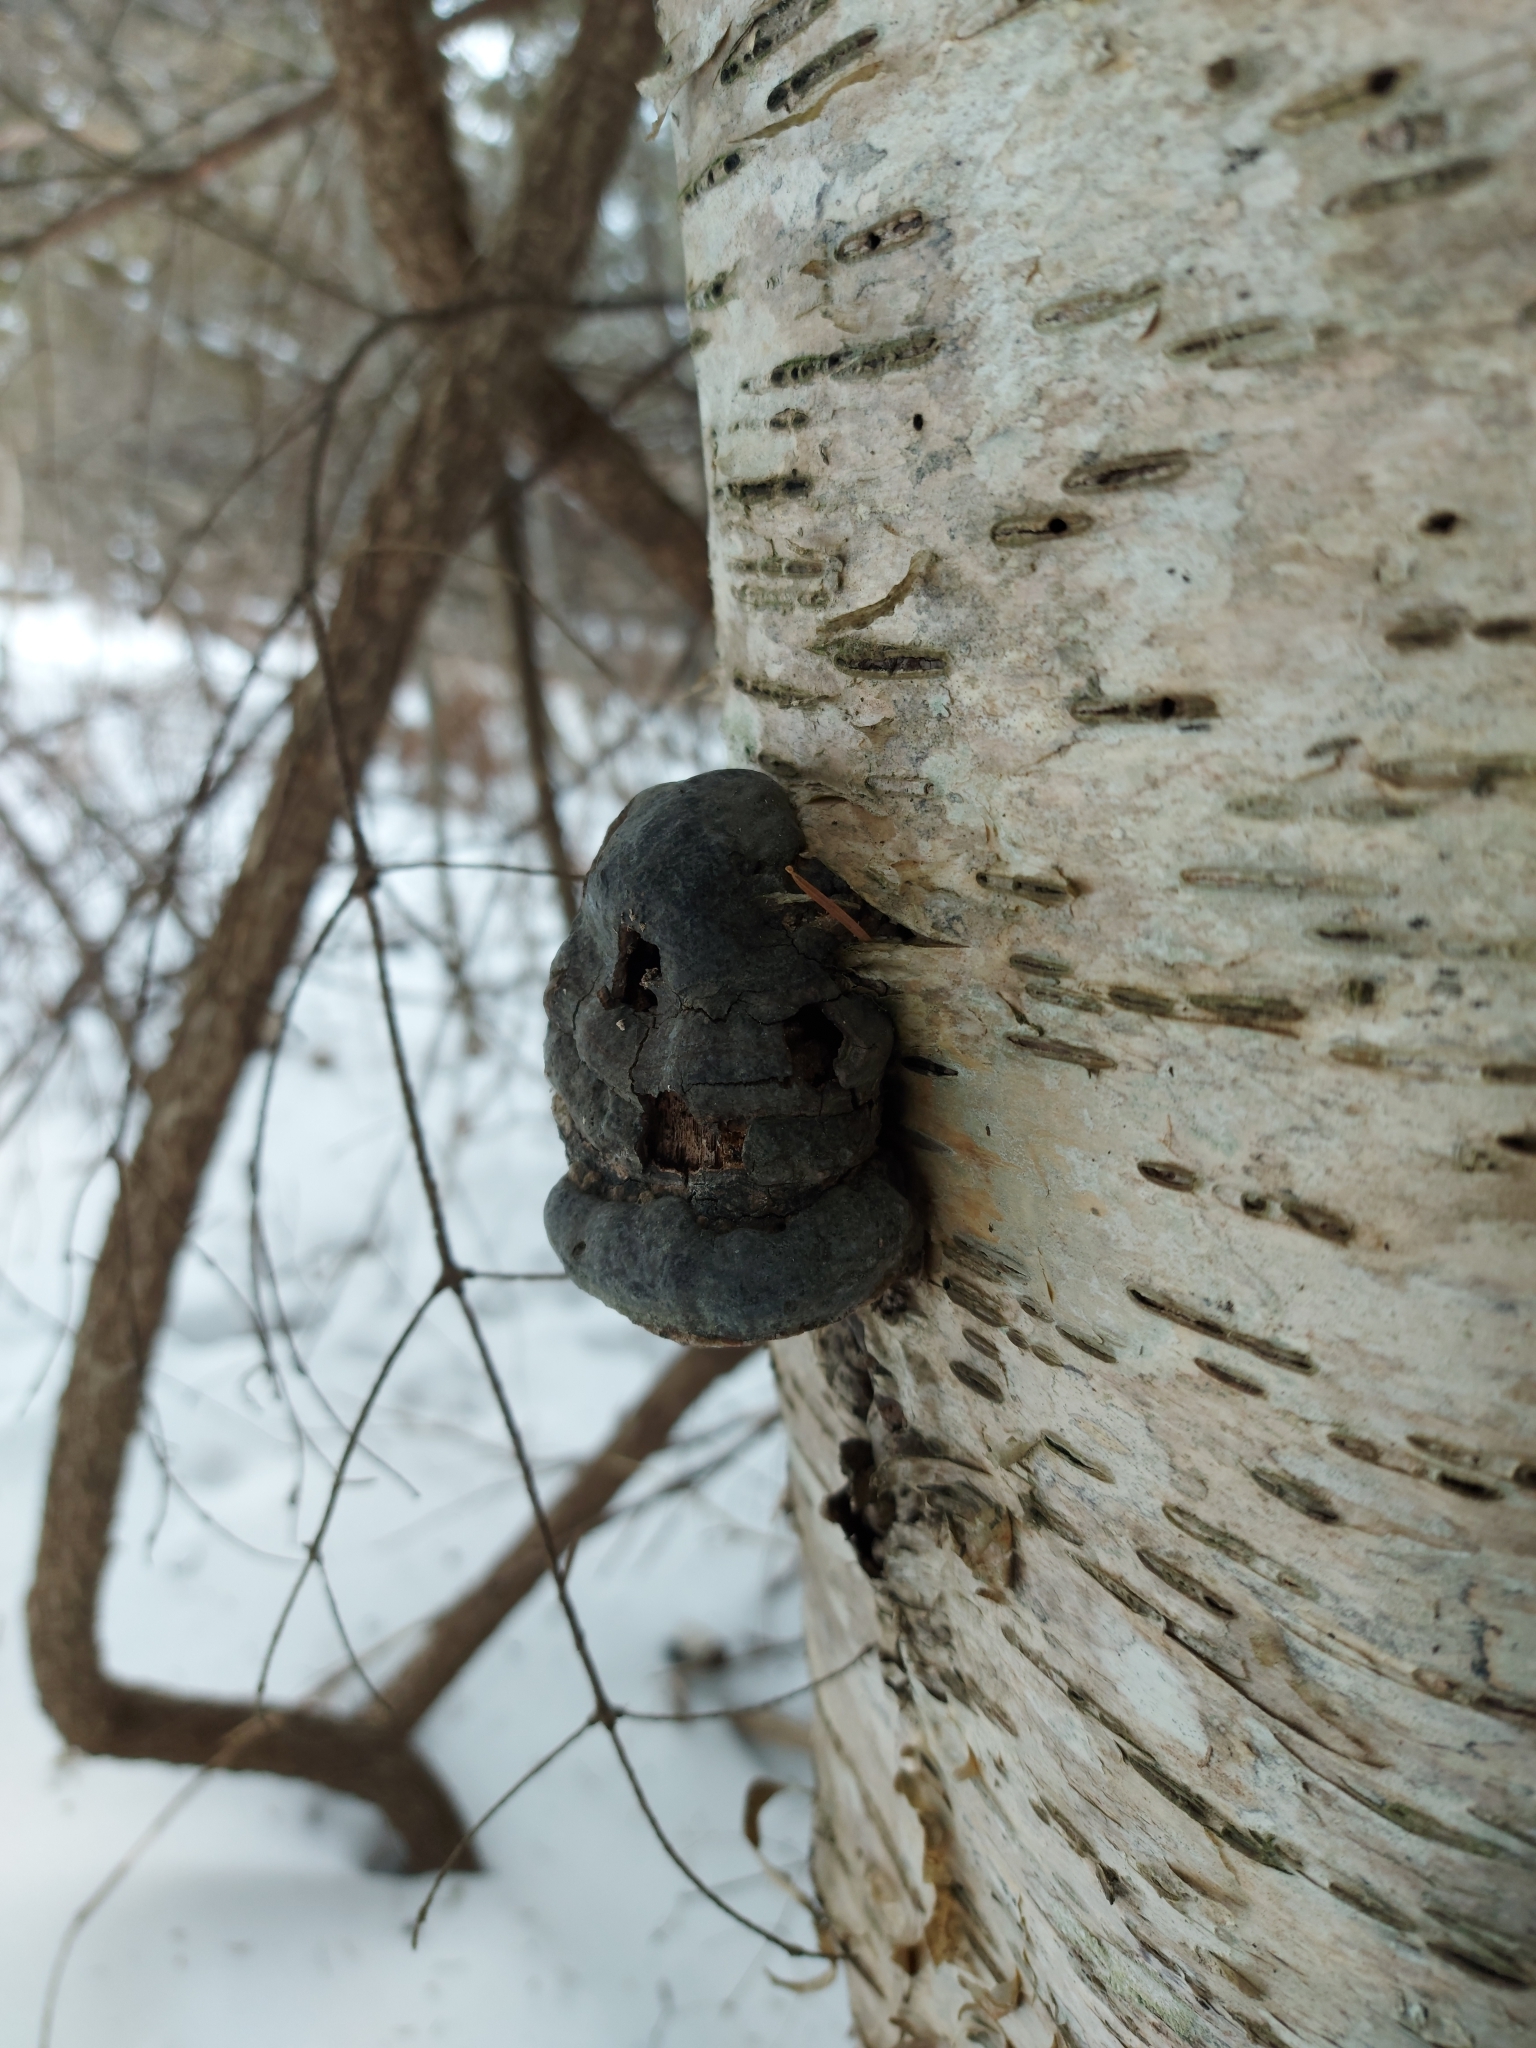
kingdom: Fungi
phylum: Basidiomycota
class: Agaricomycetes
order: Polyporales
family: Polyporaceae
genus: Fomes
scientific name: Fomes fomentarius
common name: Hoof fungus
